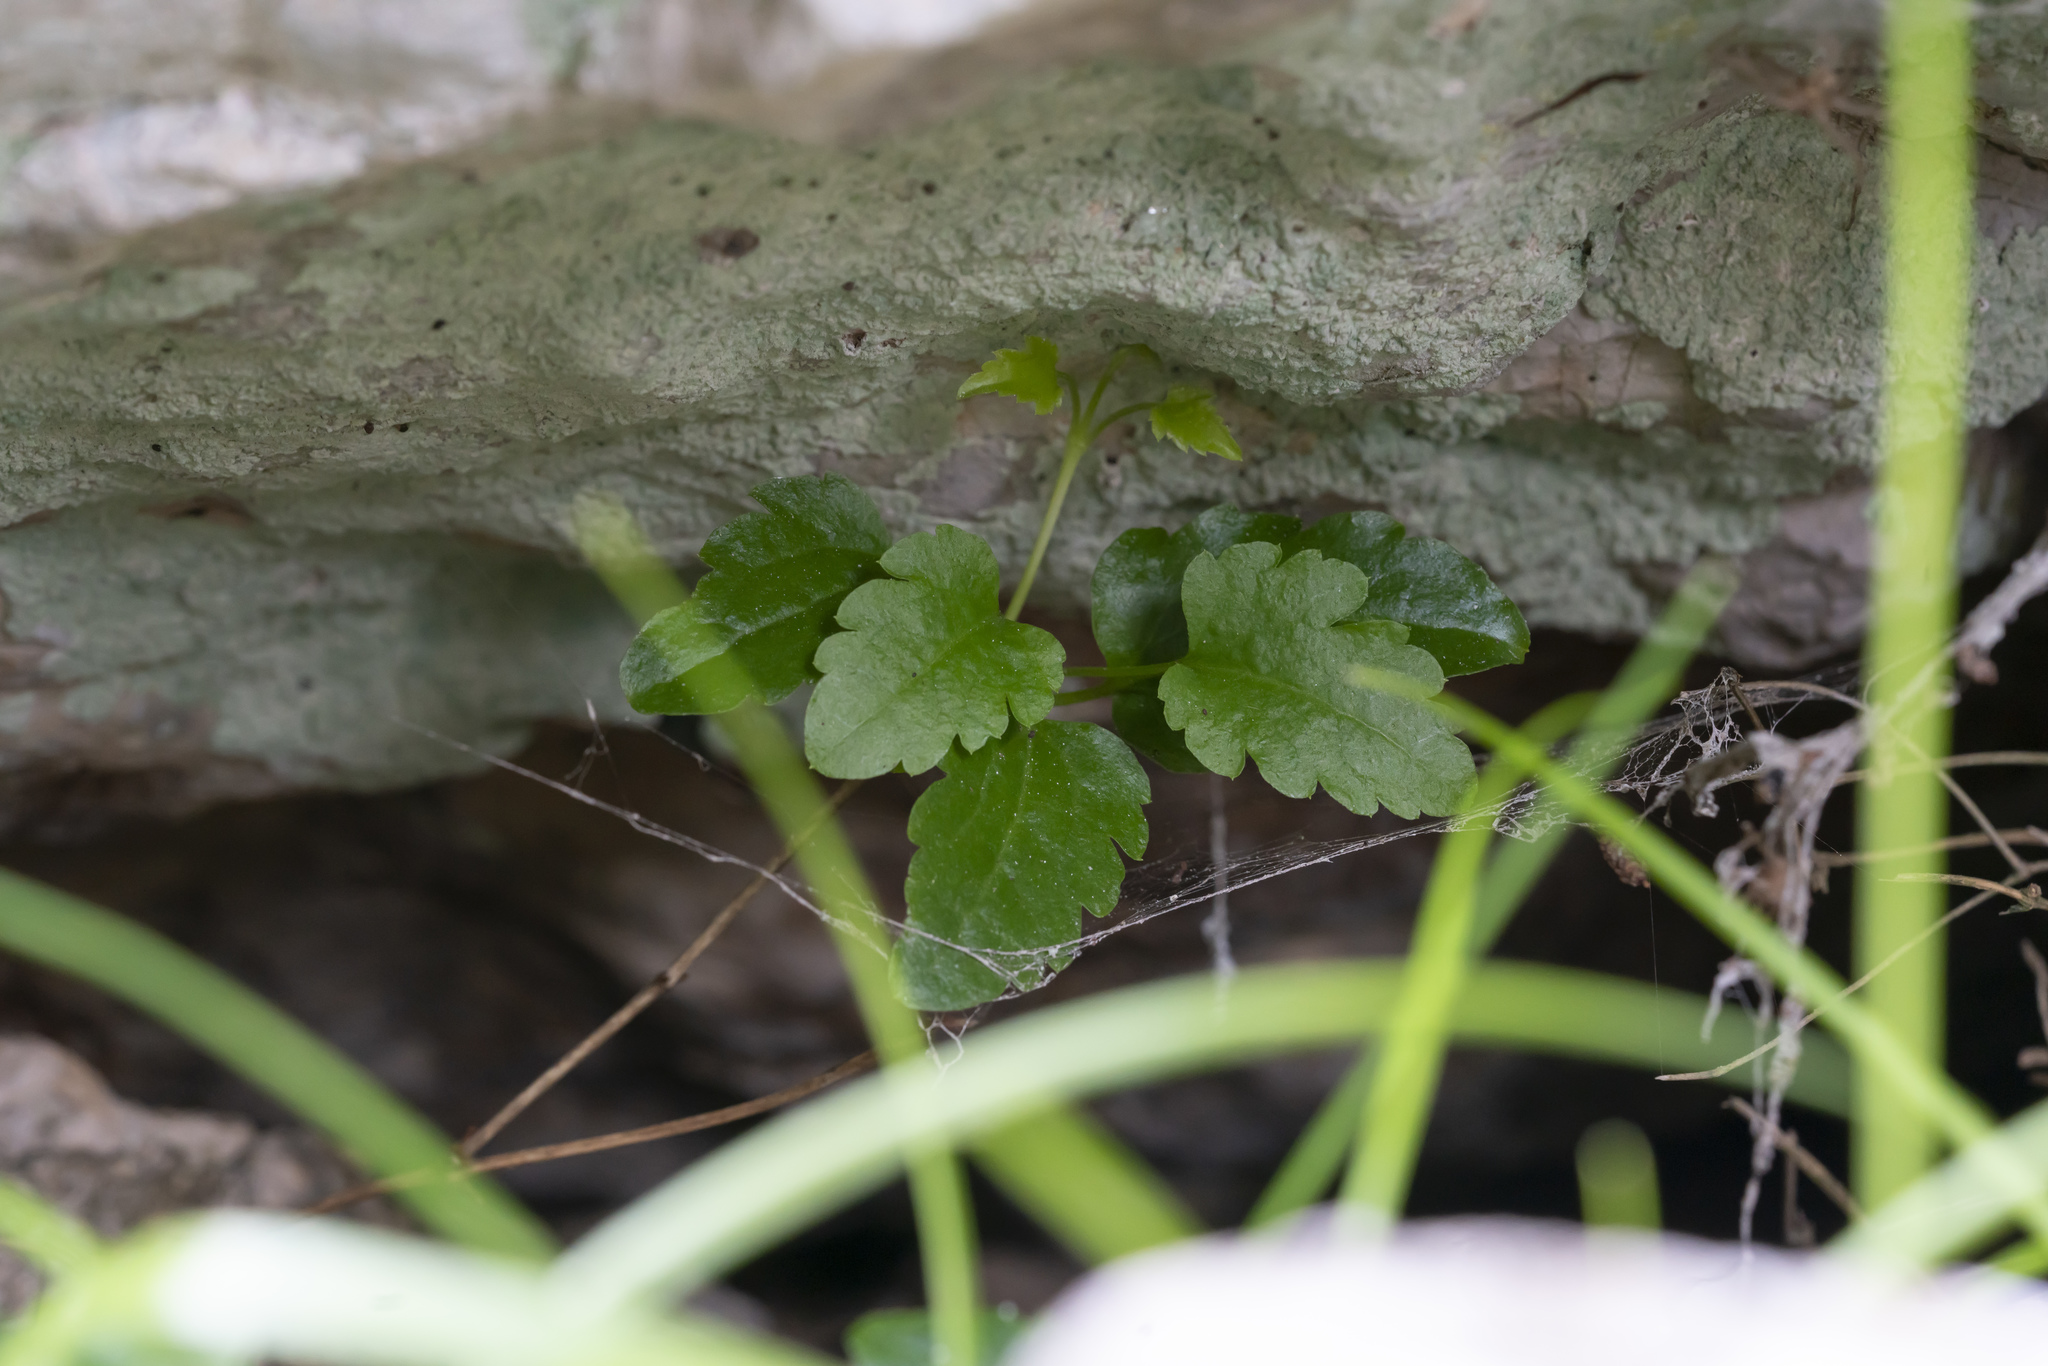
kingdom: Plantae
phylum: Tracheophyta
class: Magnoliopsida
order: Ranunculales
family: Ranunculaceae
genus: Clematis
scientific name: Clematis cirrhosa
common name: Early virgin's-bower
